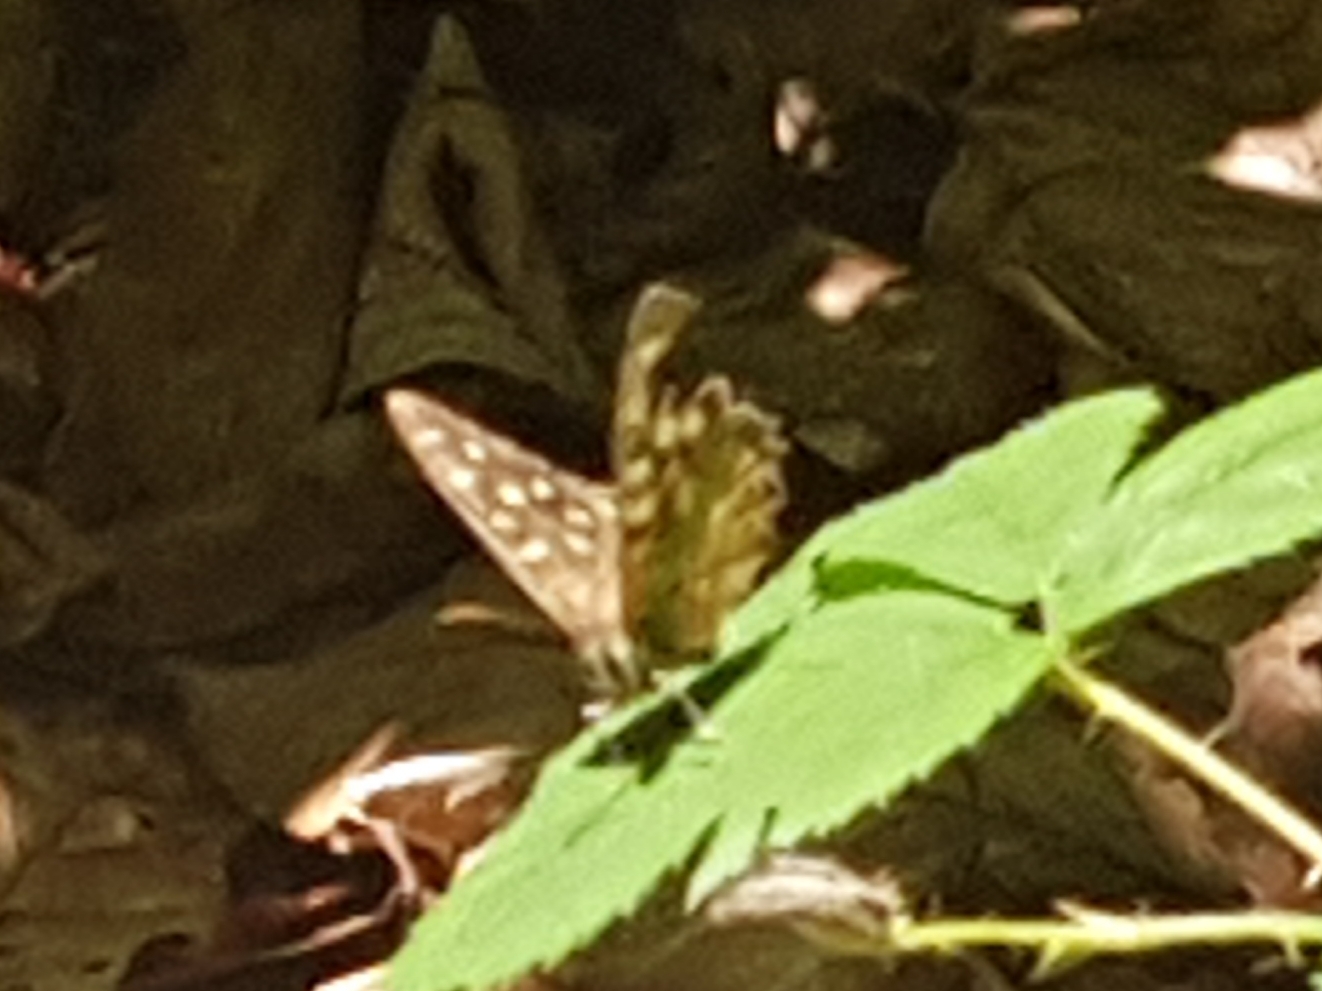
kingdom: Animalia
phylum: Arthropoda
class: Insecta
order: Lepidoptera
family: Nymphalidae
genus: Pararge
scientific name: Pararge aegeria
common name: Speckled wood
